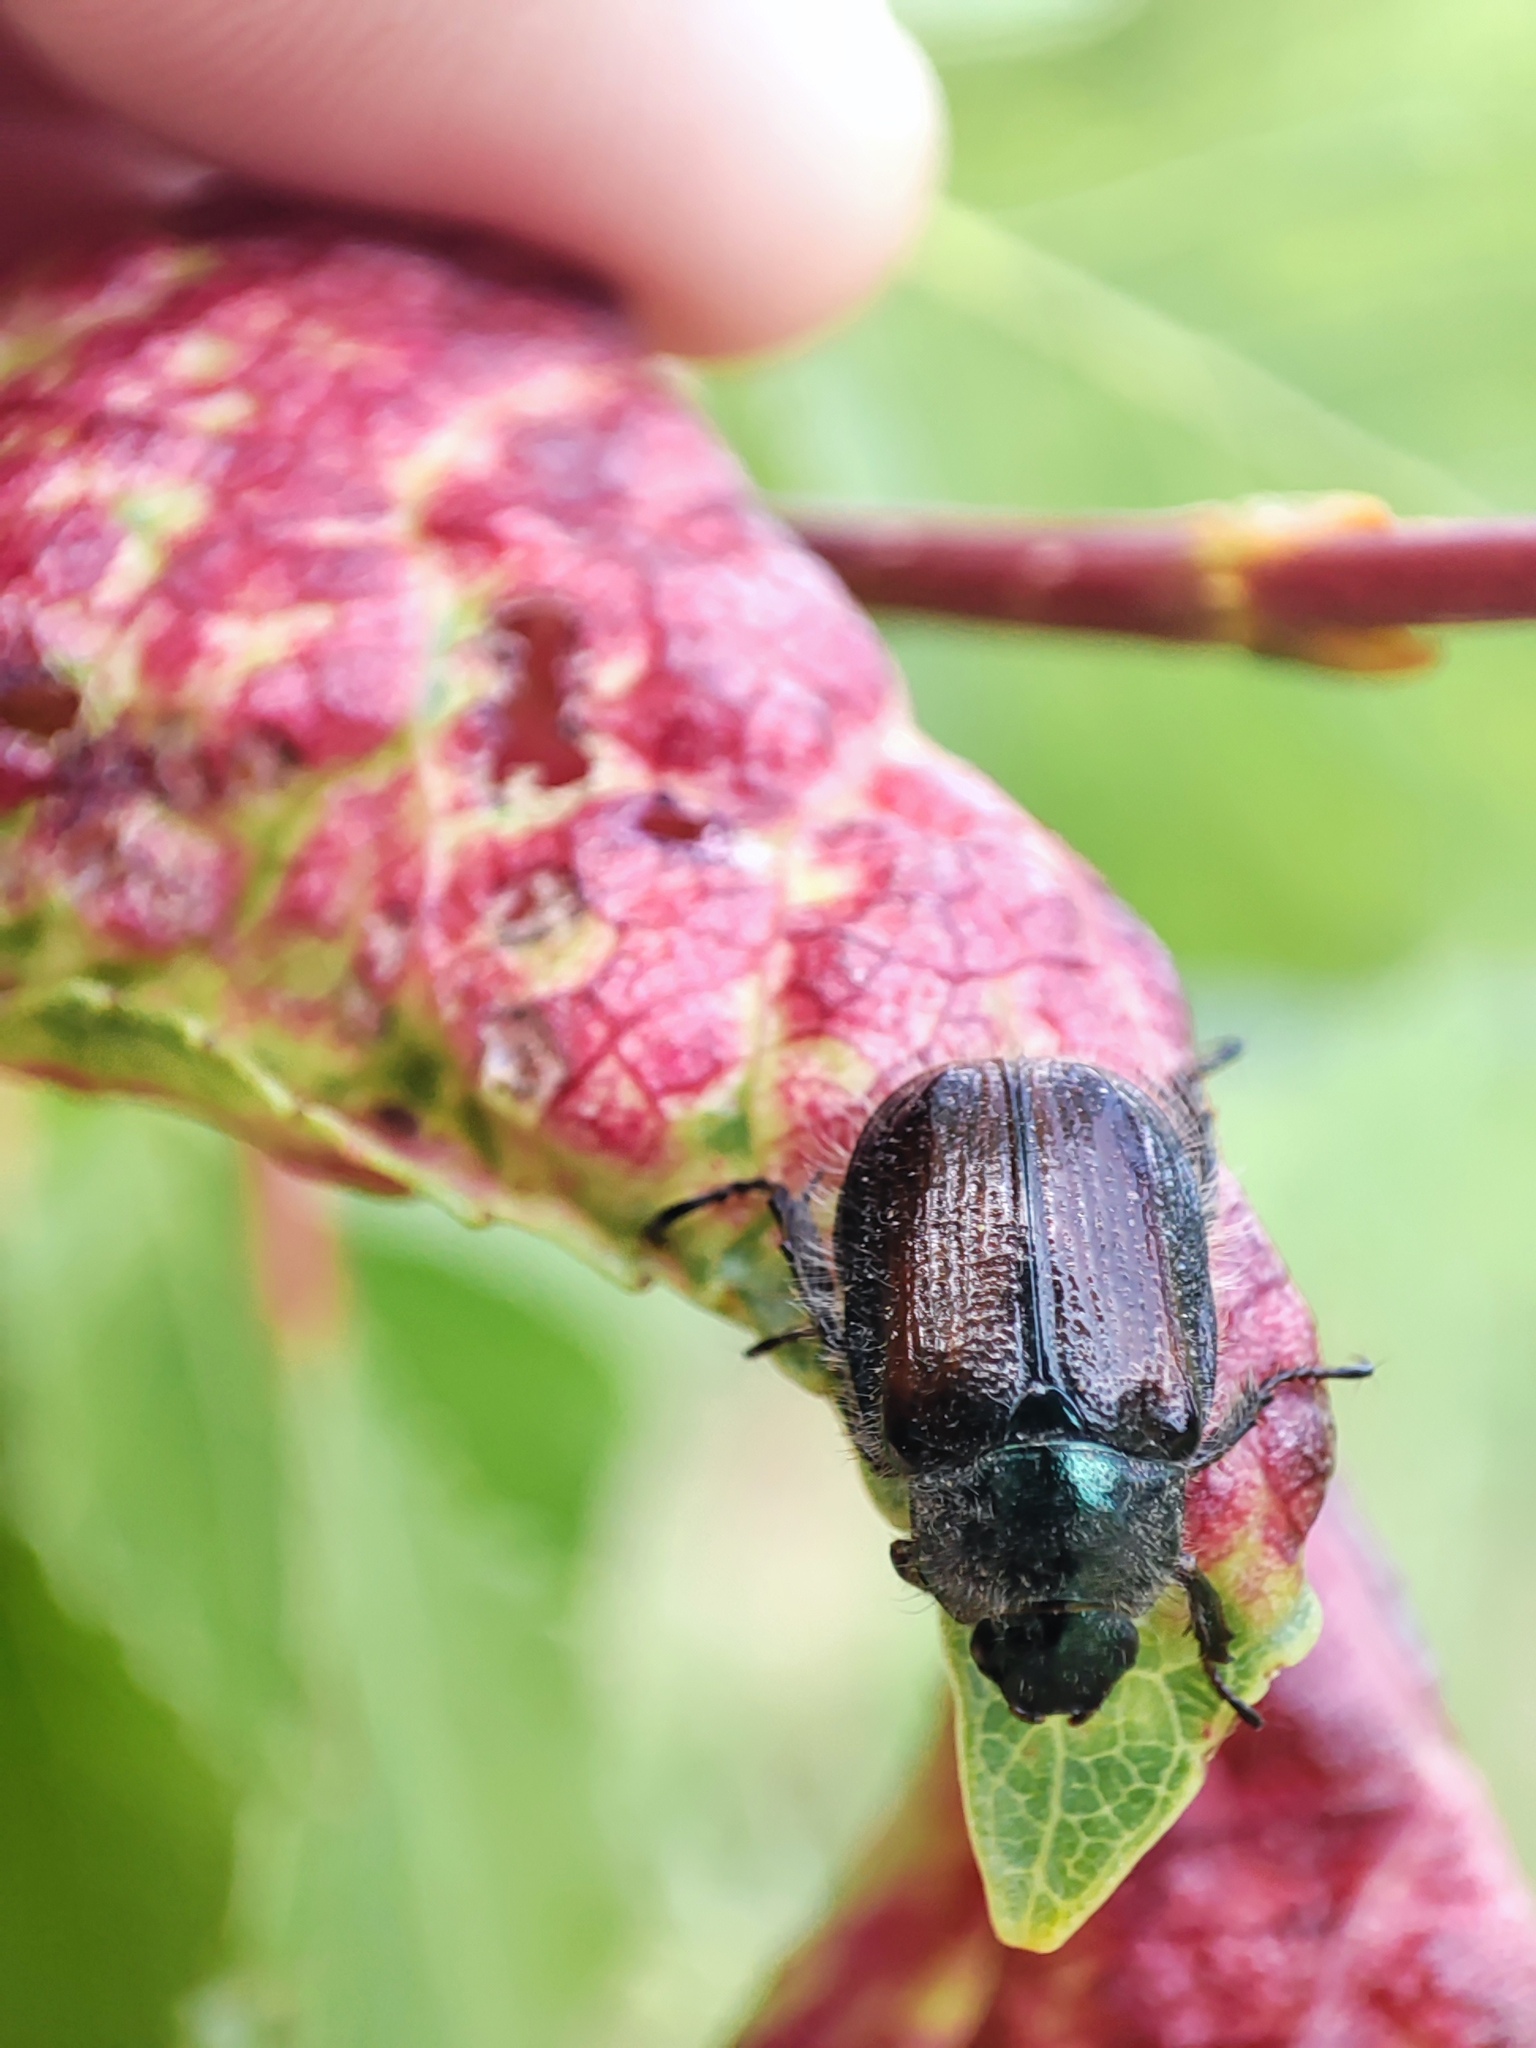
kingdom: Animalia
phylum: Arthropoda
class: Insecta
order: Coleoptera
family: Scarabaeidae
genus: Phyllopertha
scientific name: Phyllopertha horticola
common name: Garden chafer
